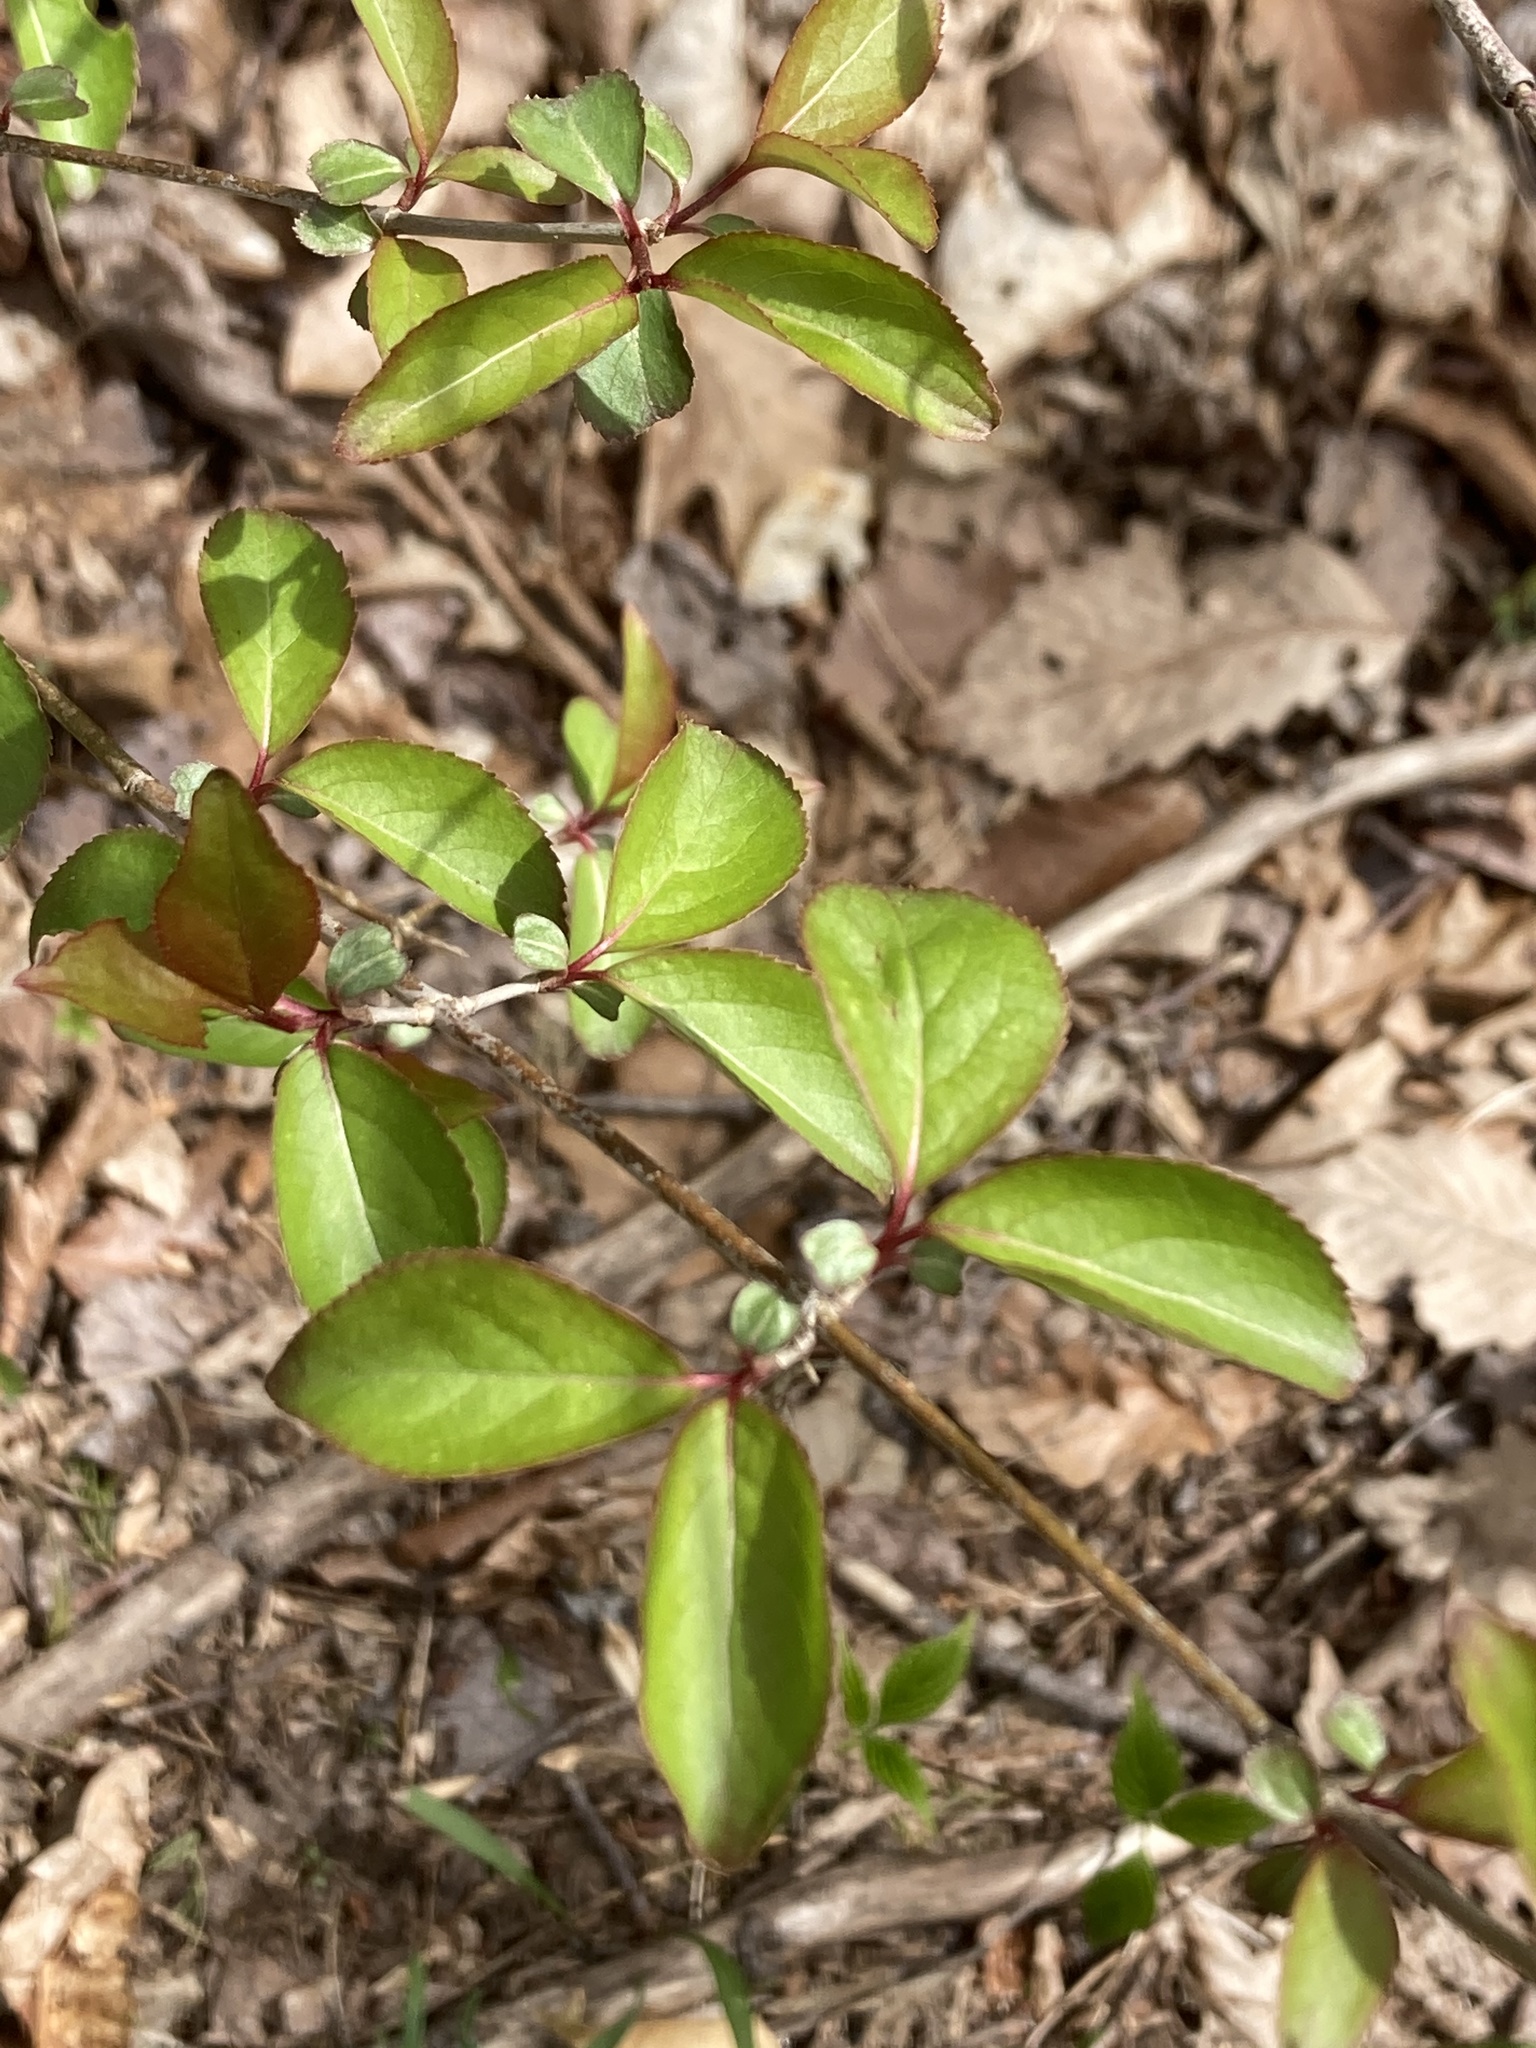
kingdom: Plantae
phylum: Tracheophyta
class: Magnoliopsida
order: Dipsacales
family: Viburnaceae
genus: Viburnum
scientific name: Viburnum prunifolium
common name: Black haw
